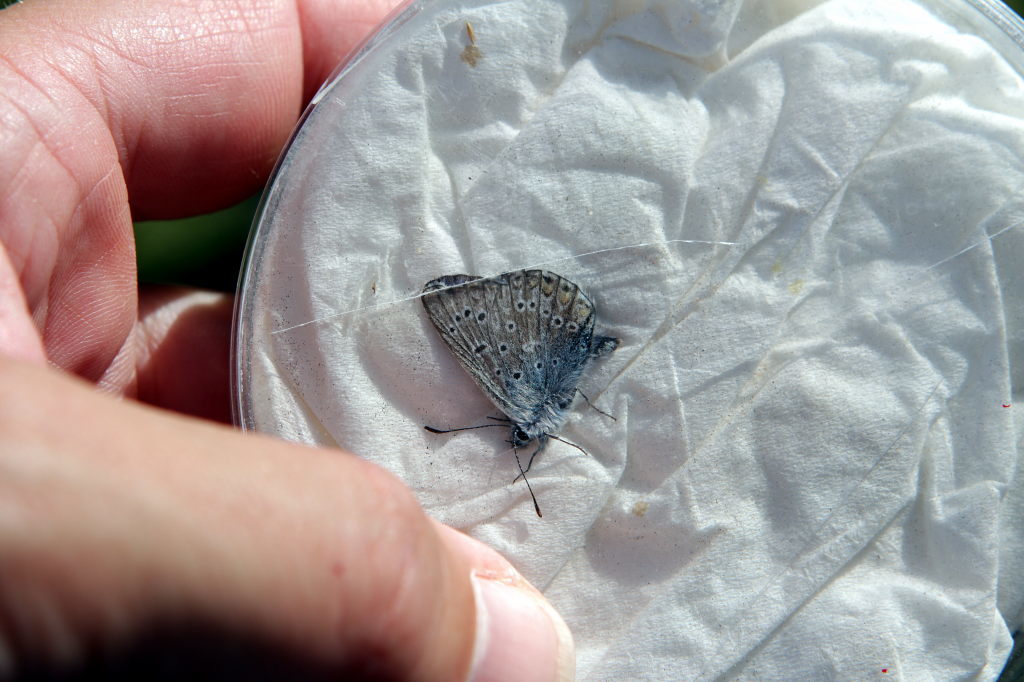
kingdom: Animalia
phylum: Arthropoda
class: Insecta
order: Lepidoptera
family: Lycaenidae
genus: Polyommatus
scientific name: Polyommatus icarus
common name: Common blue
